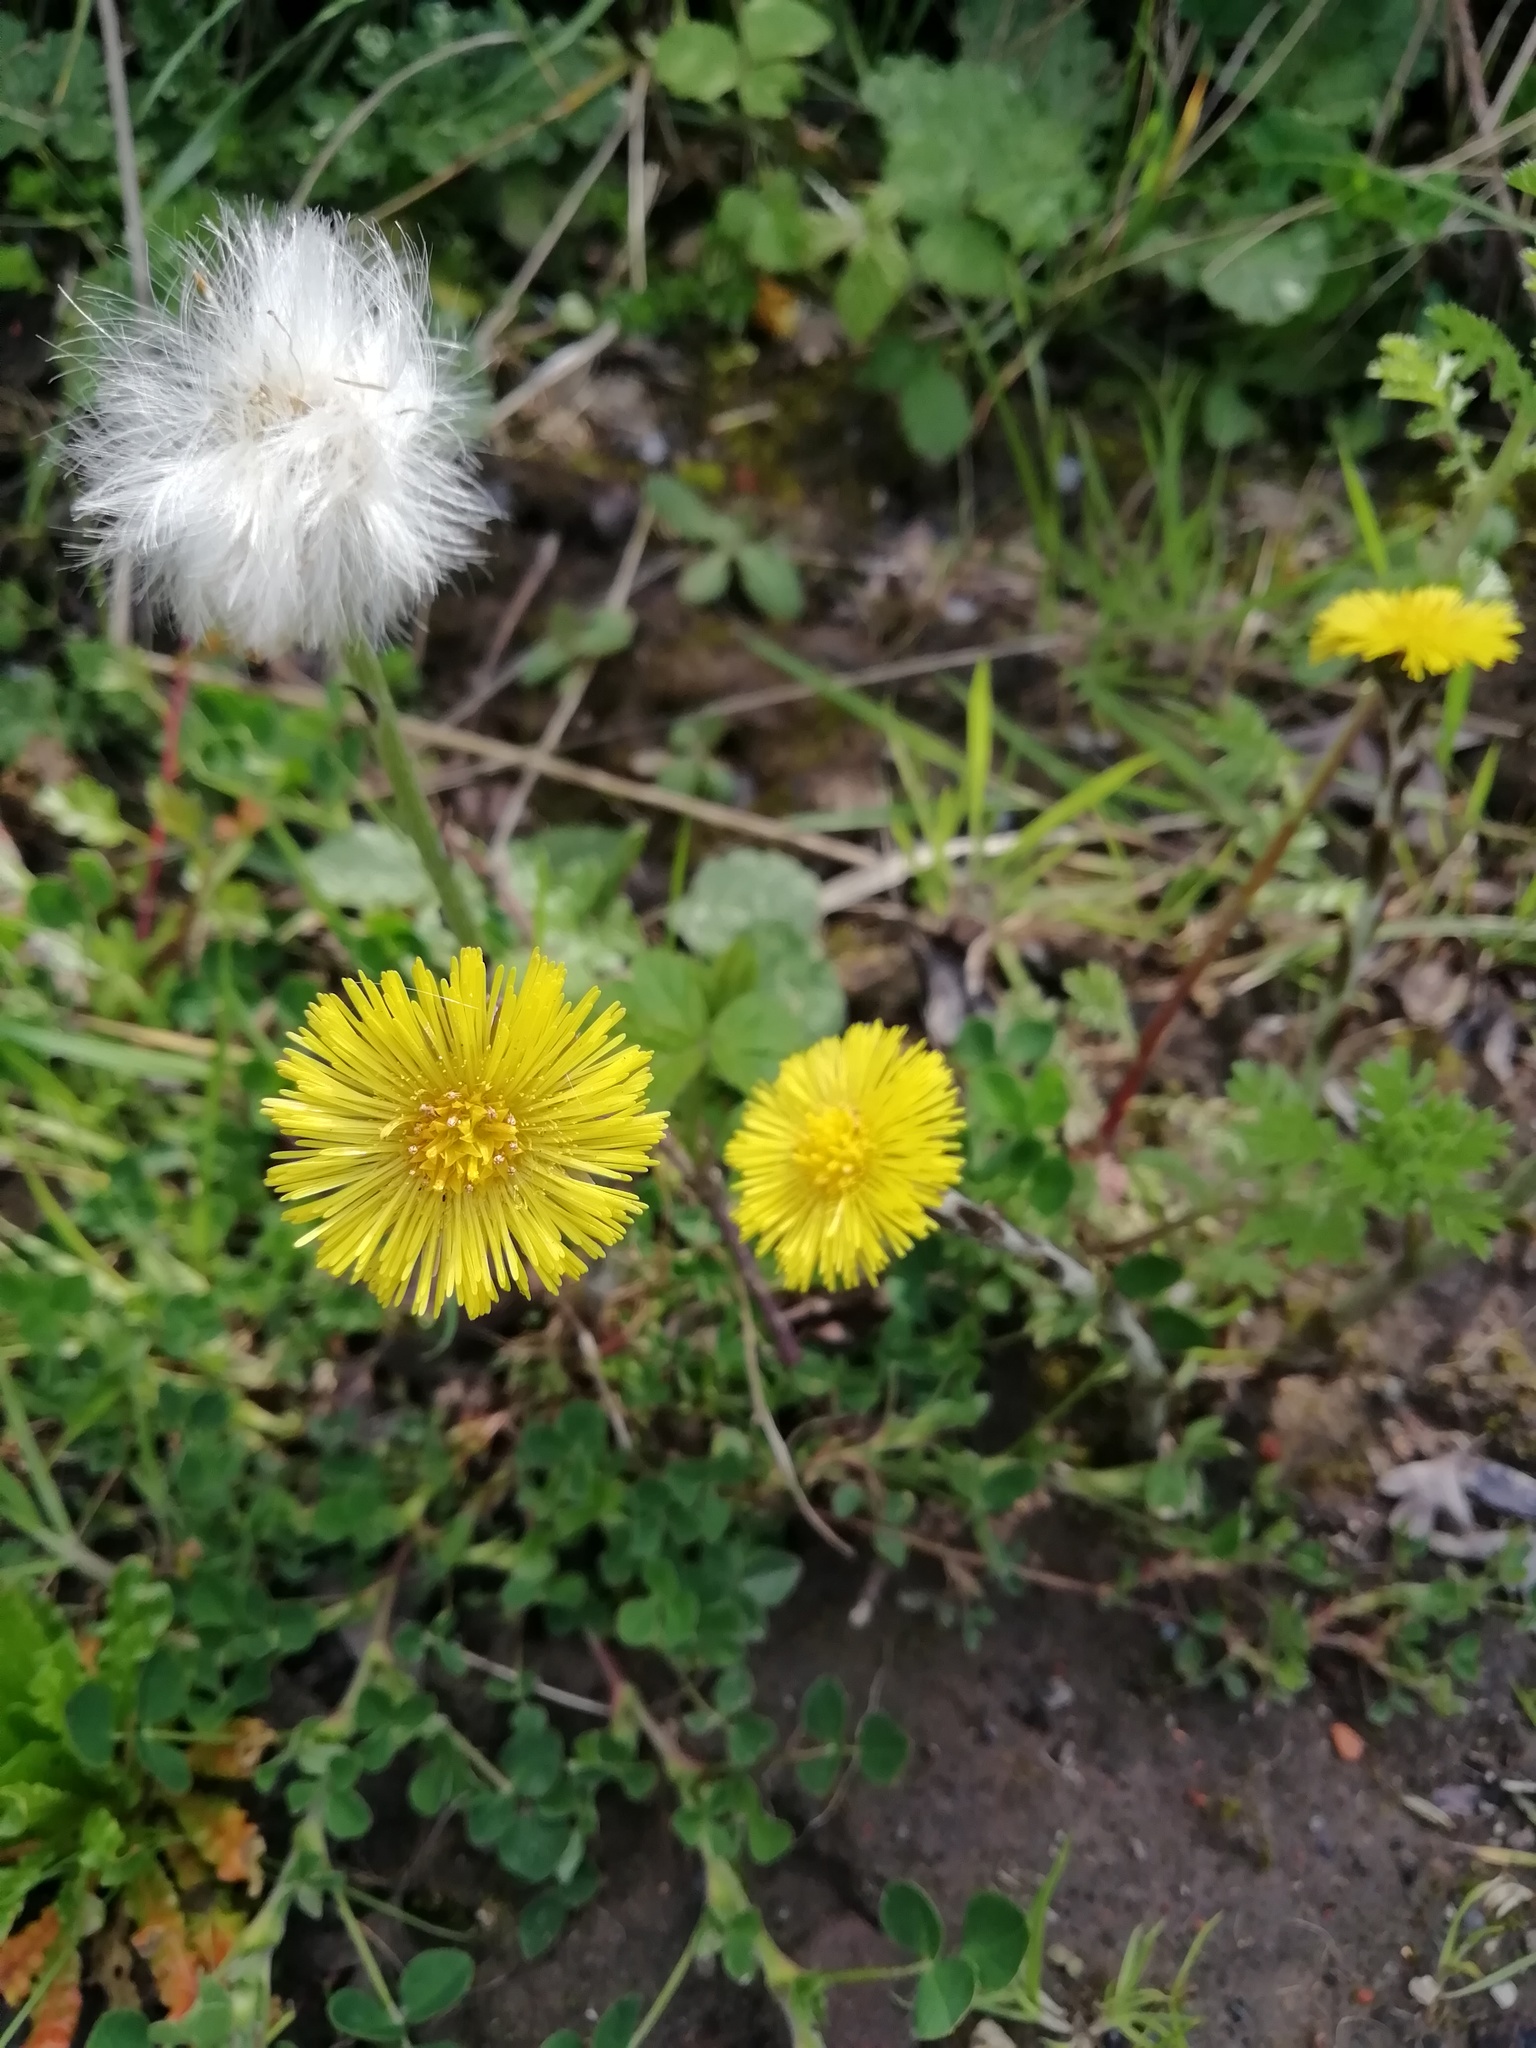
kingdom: Plantae
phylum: Tracheophyta
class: Magnoliopsida
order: Asterales
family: Asteraceae
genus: Tussilago
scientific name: Tussilago farfara
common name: Coltsfoot
